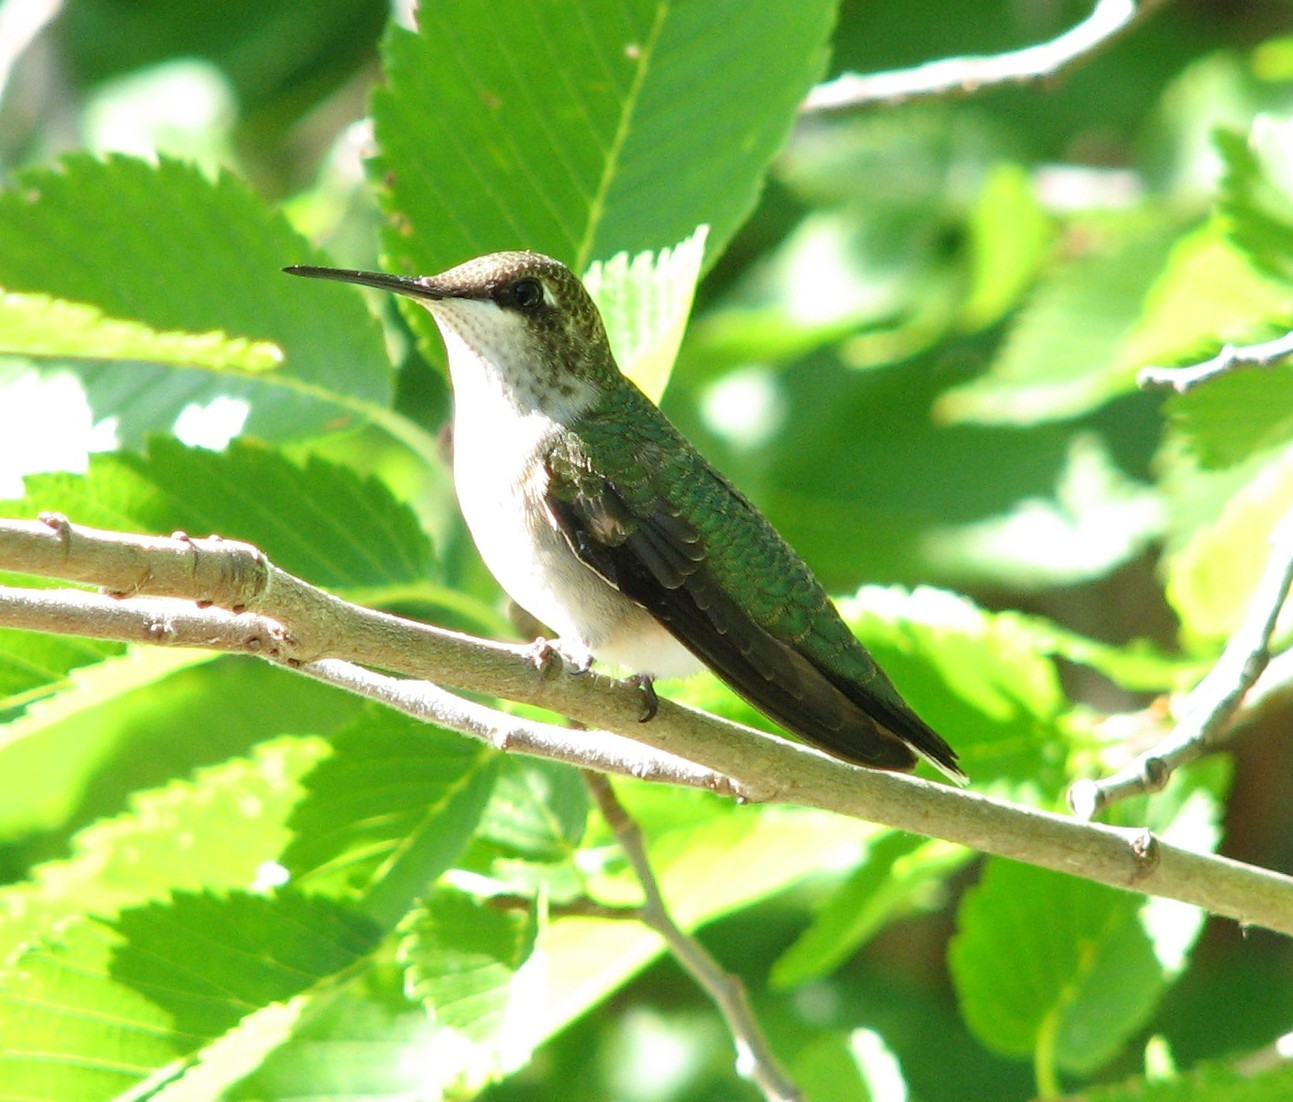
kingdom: Animalia
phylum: Chordata
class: Aves
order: Apodiformes
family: Trochilidae
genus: Archilochus
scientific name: Archilochus colubris
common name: Ruby-throated hummingbird
